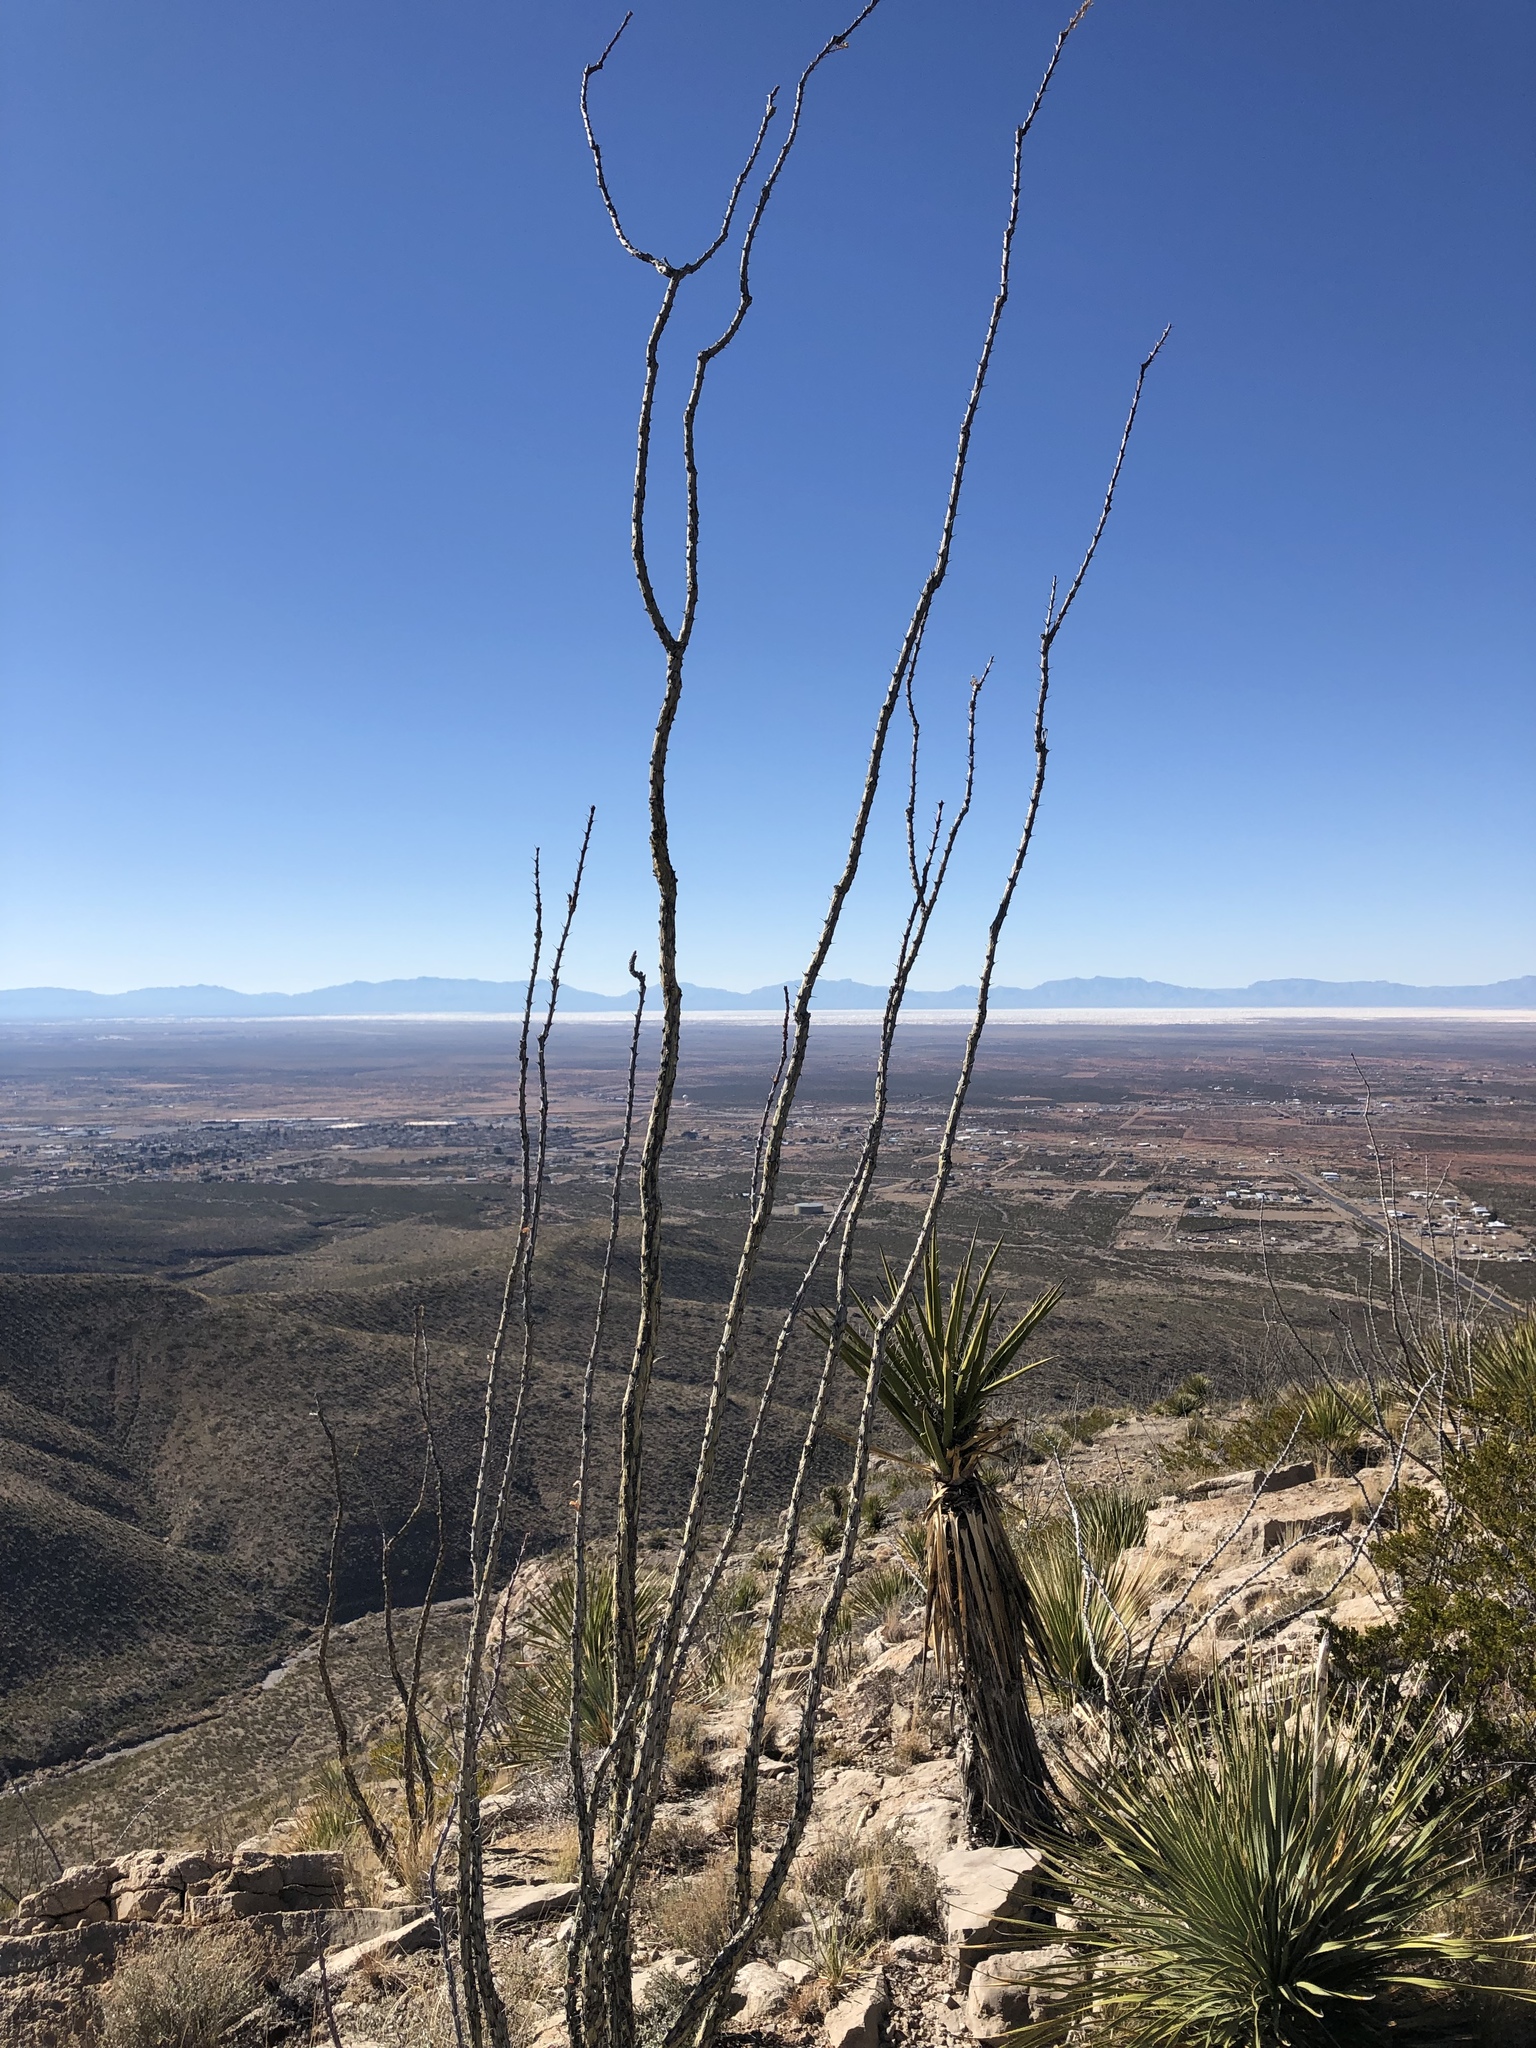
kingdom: Plantae
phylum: Tracheophyta
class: Magnoliopsida
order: Ericales
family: Fouquieriaceae
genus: Fouquieria
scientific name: Fouquieria splendens
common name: Vine-cactus
